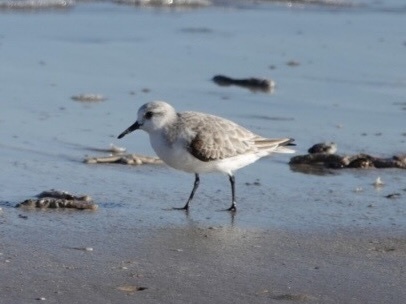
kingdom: Animalia
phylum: Chordata
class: Aves
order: Charadriiformes
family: Scolopacidae
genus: Calidris
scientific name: Calidris alba
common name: Sanderling
